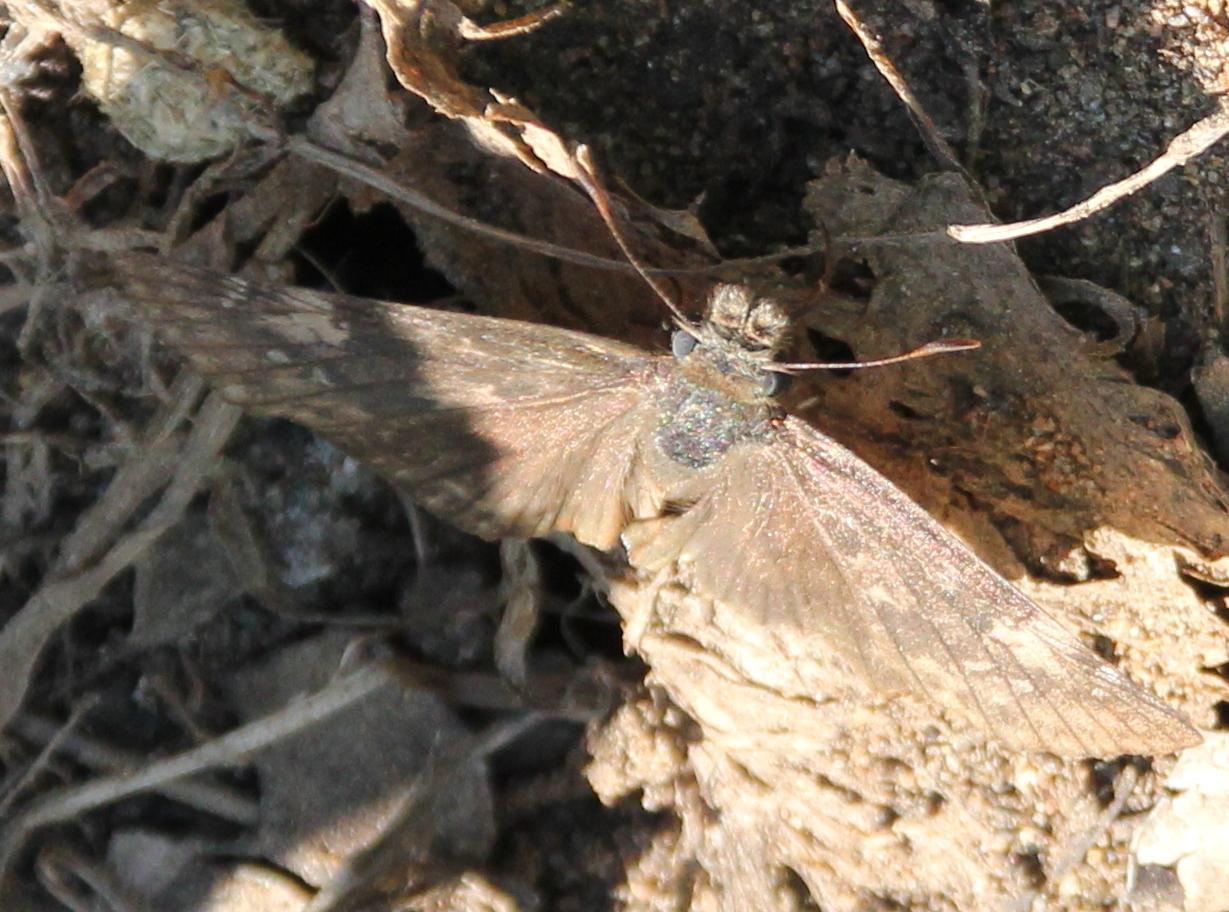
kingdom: Animalia
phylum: Arthropoda
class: Insecta
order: Lepidoptera
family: Hesperiidae
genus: Erynnis
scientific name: Erynnis funeralis
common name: Funereal duskywing
